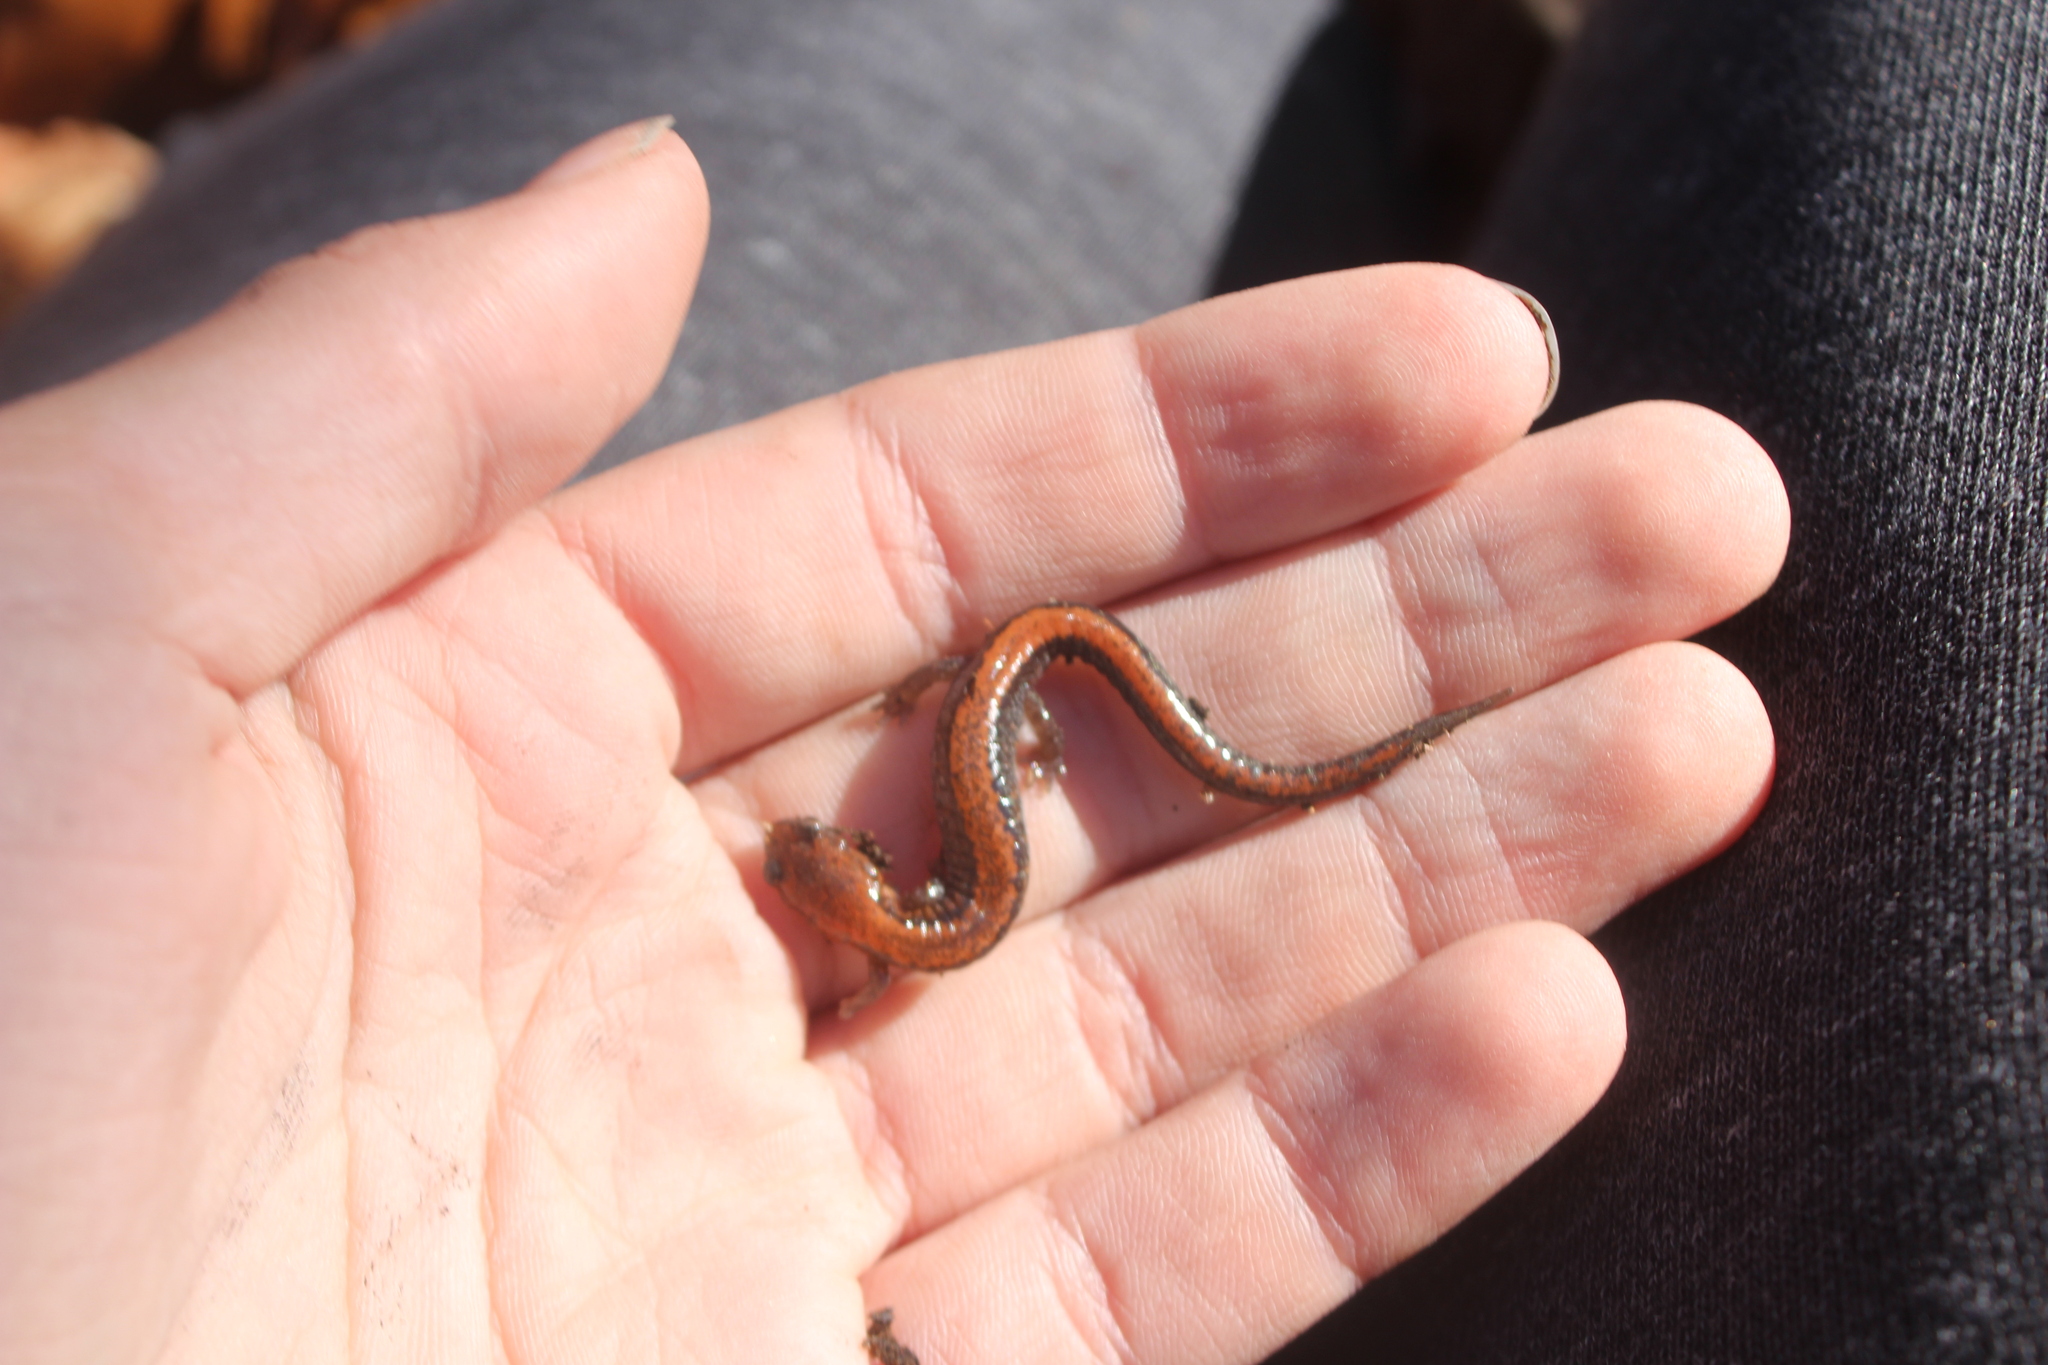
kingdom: Animalia
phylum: Chordata
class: Amphibia
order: Caudata
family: Plethodontidae
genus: Plethodon
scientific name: Plethodon cinereus
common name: Redback salamander
